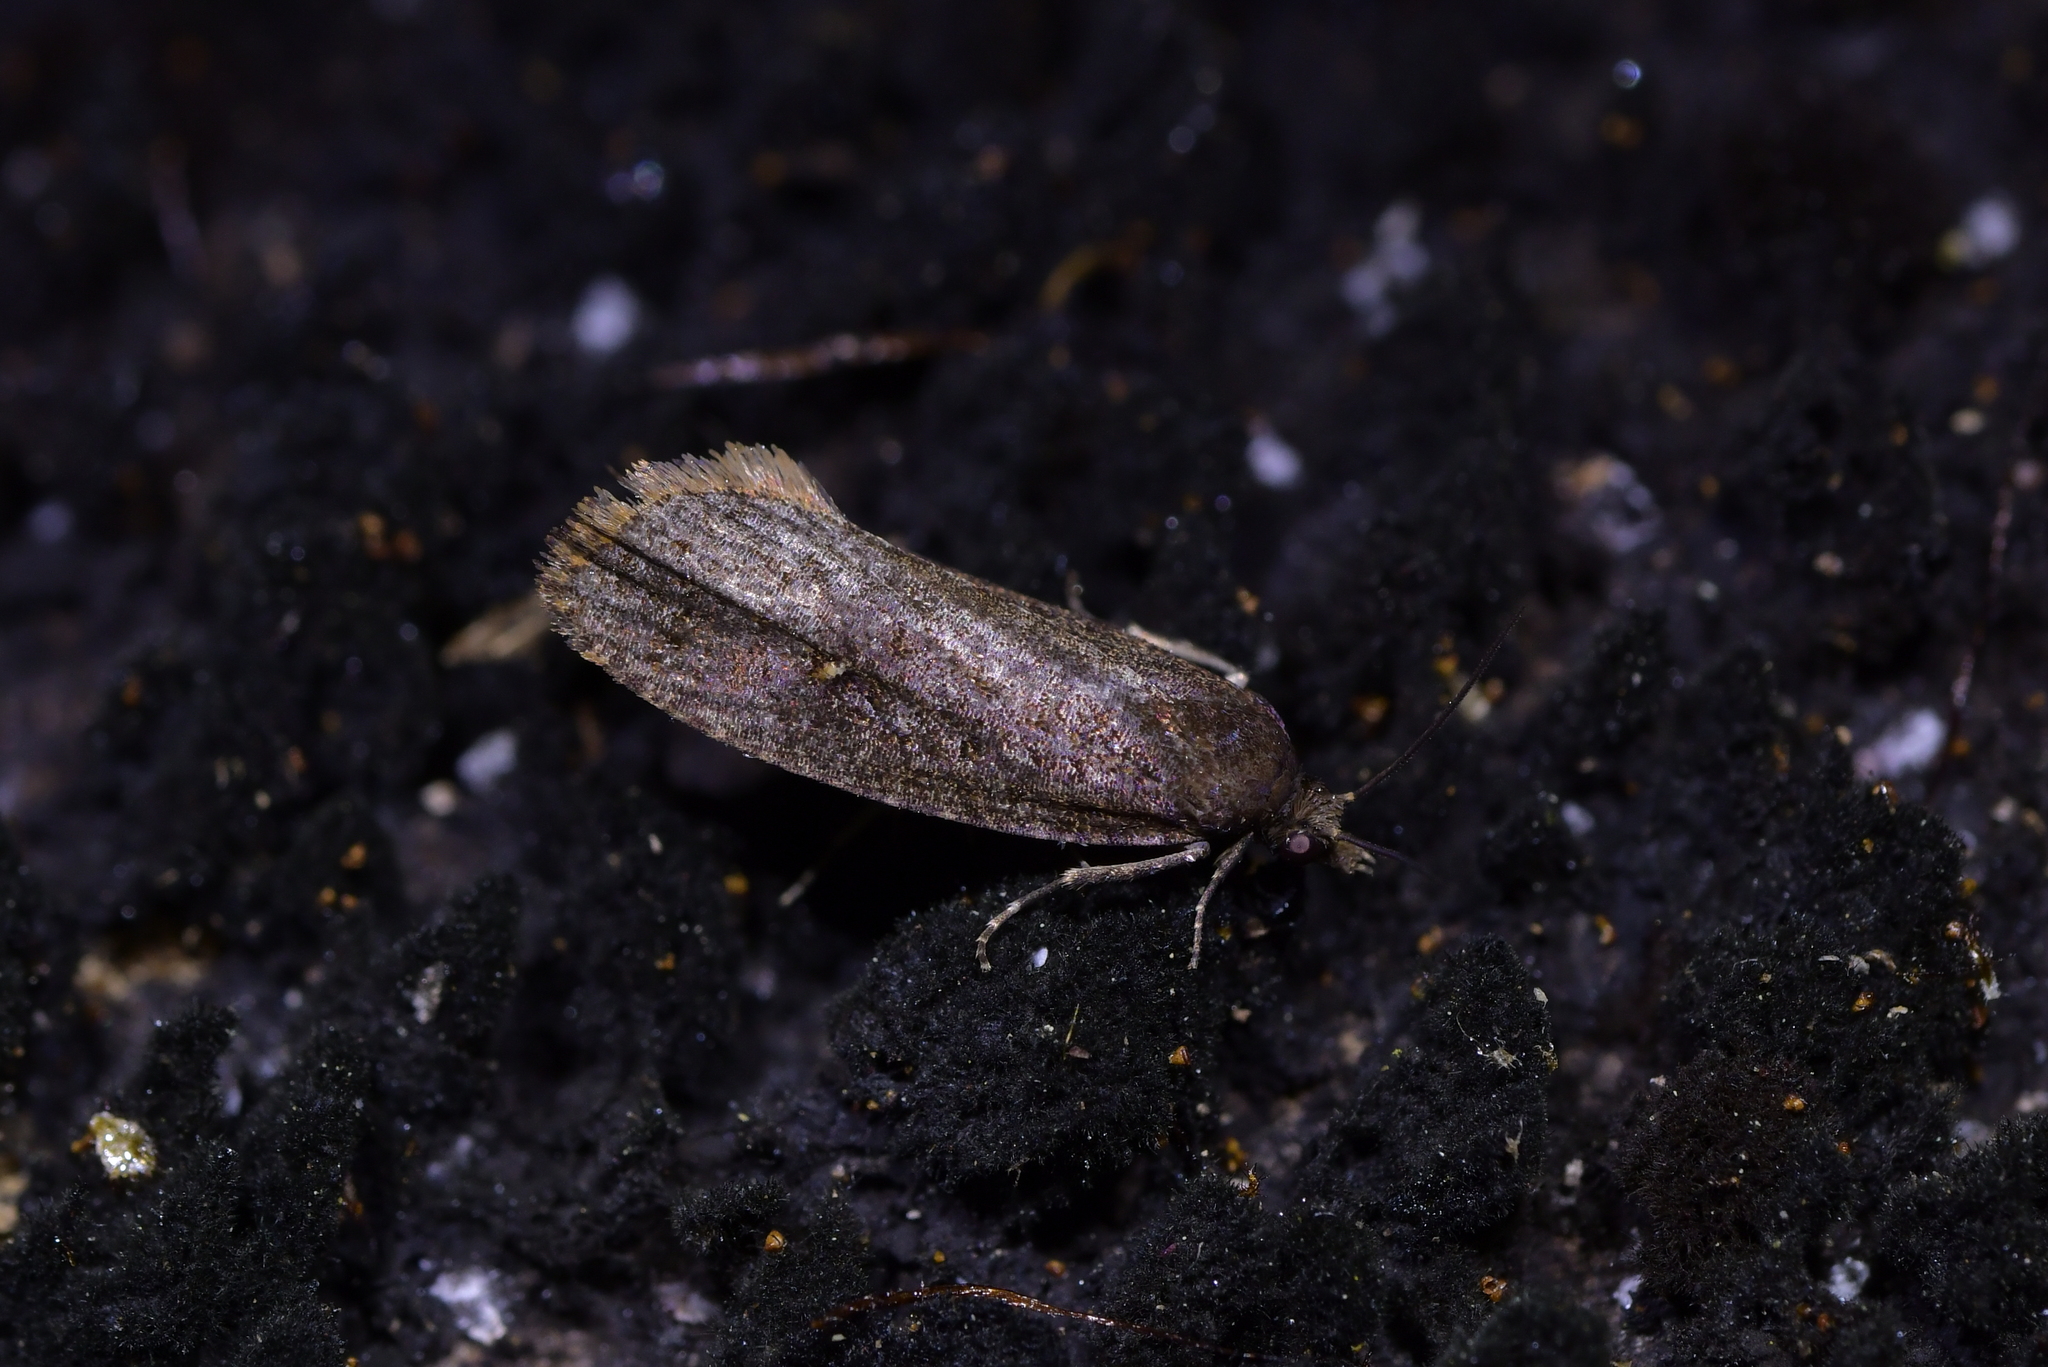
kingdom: Animalia
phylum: Arthropoda
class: Insecta
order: Lepidoptera
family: Tortricidae
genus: Cryptaspasma
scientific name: Cryptaspasma querula
